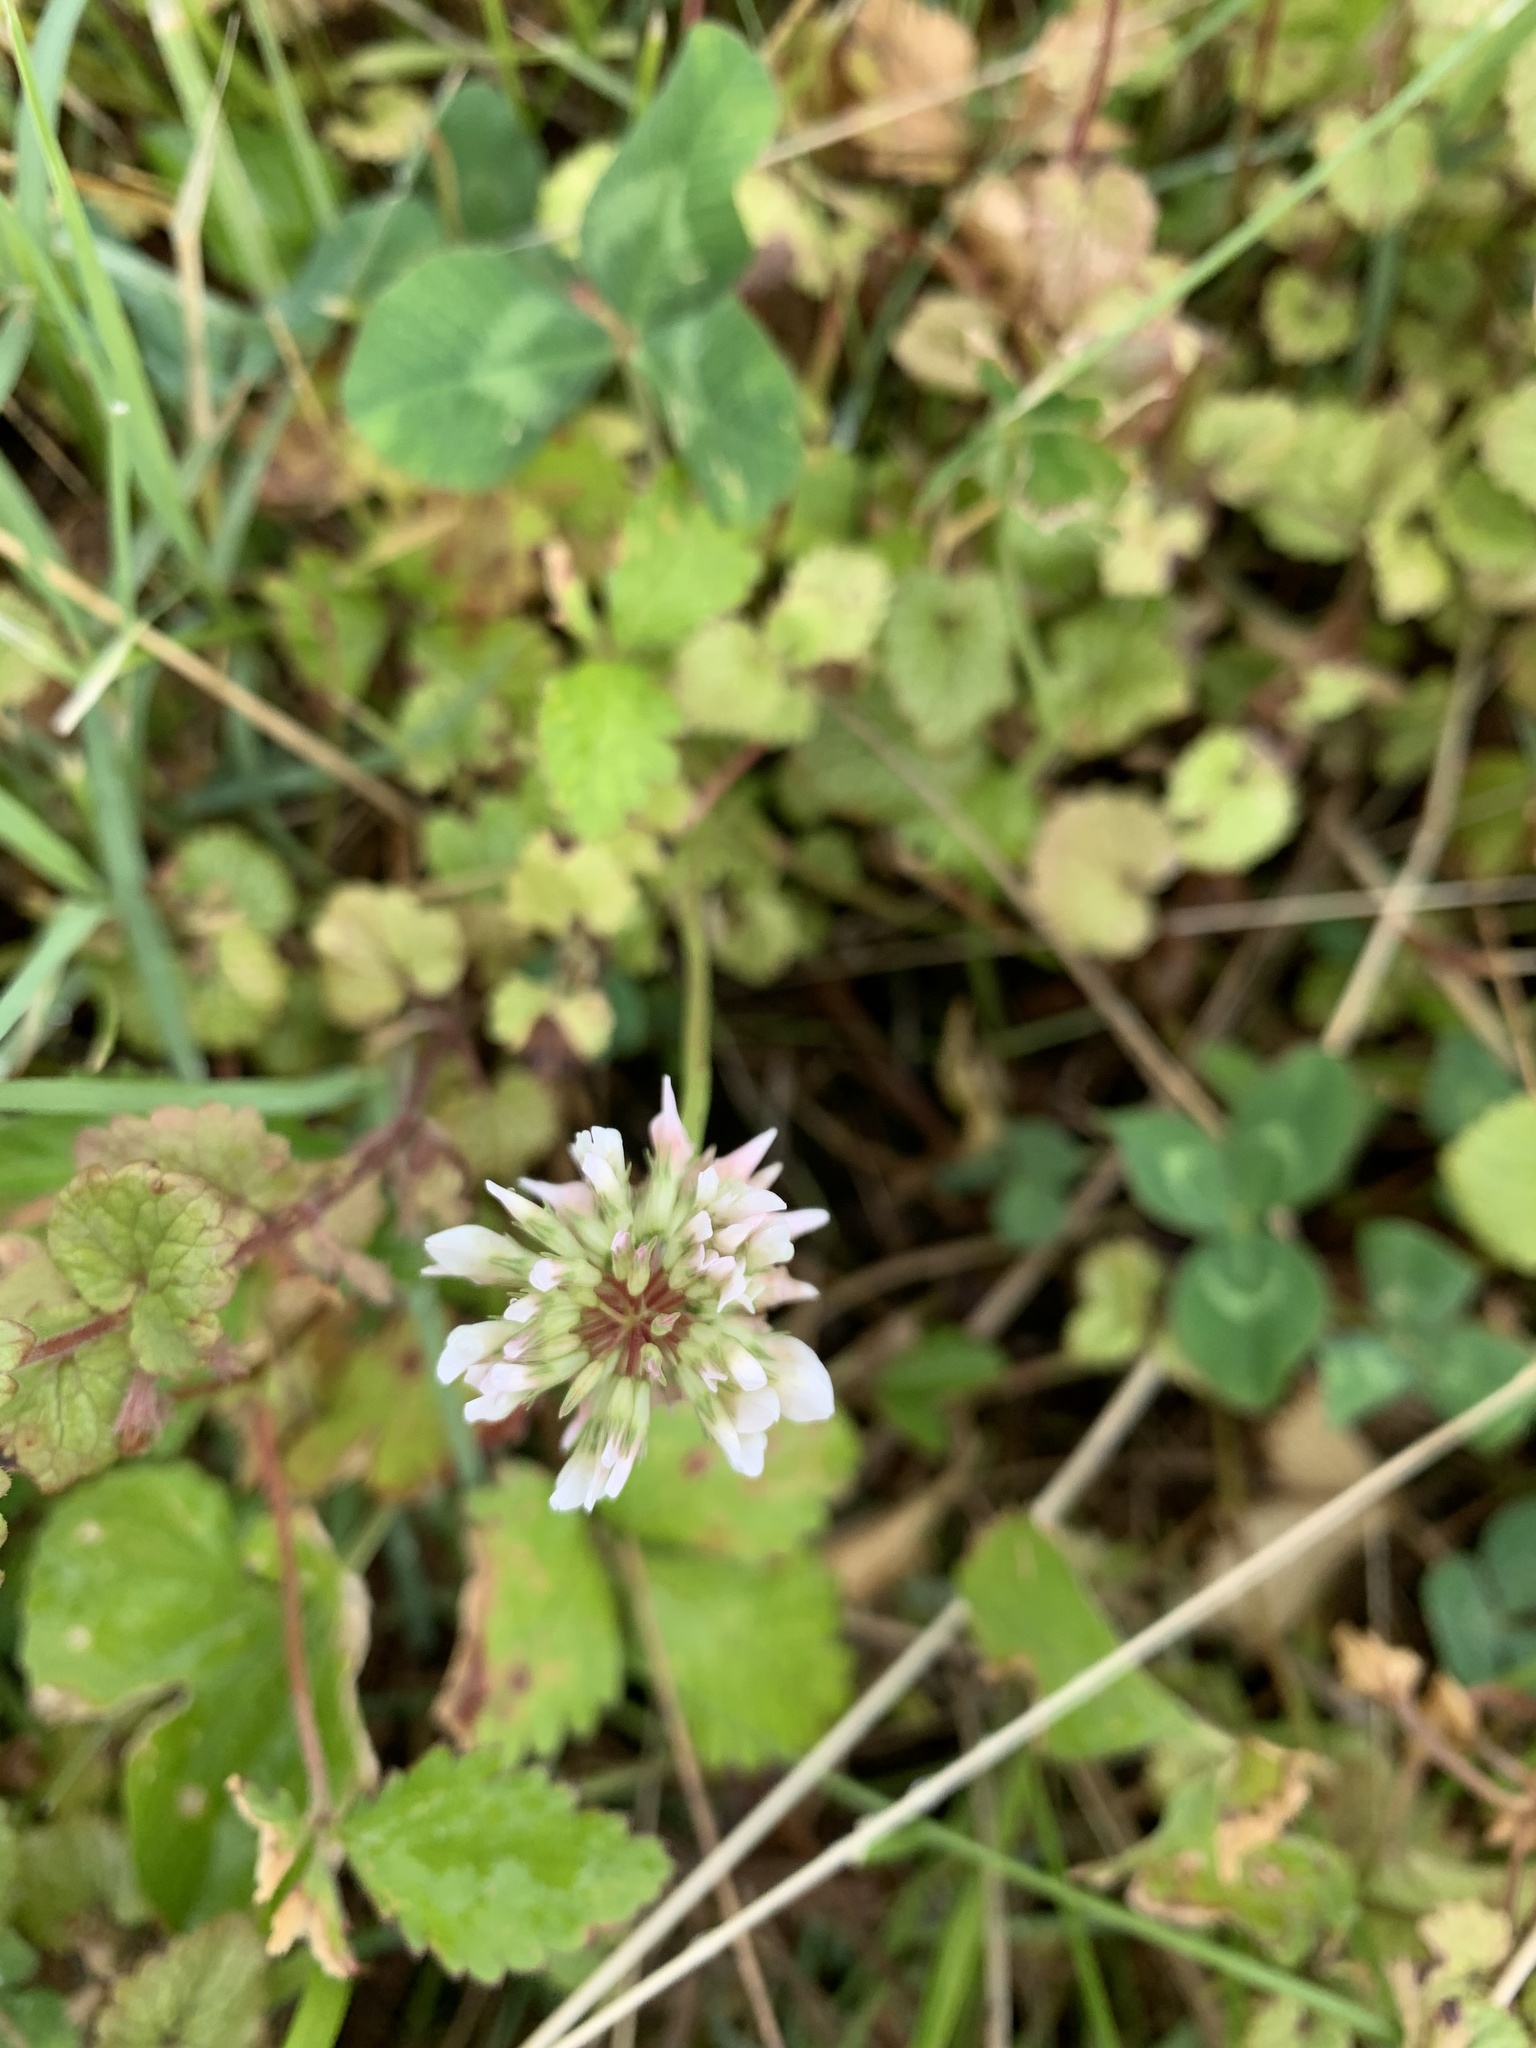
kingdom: Plantae
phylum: Tracheophyta
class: Magnoliopsida
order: Fabales
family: Fabaceae
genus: Trifolium
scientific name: Trifolium repens
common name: White clover
